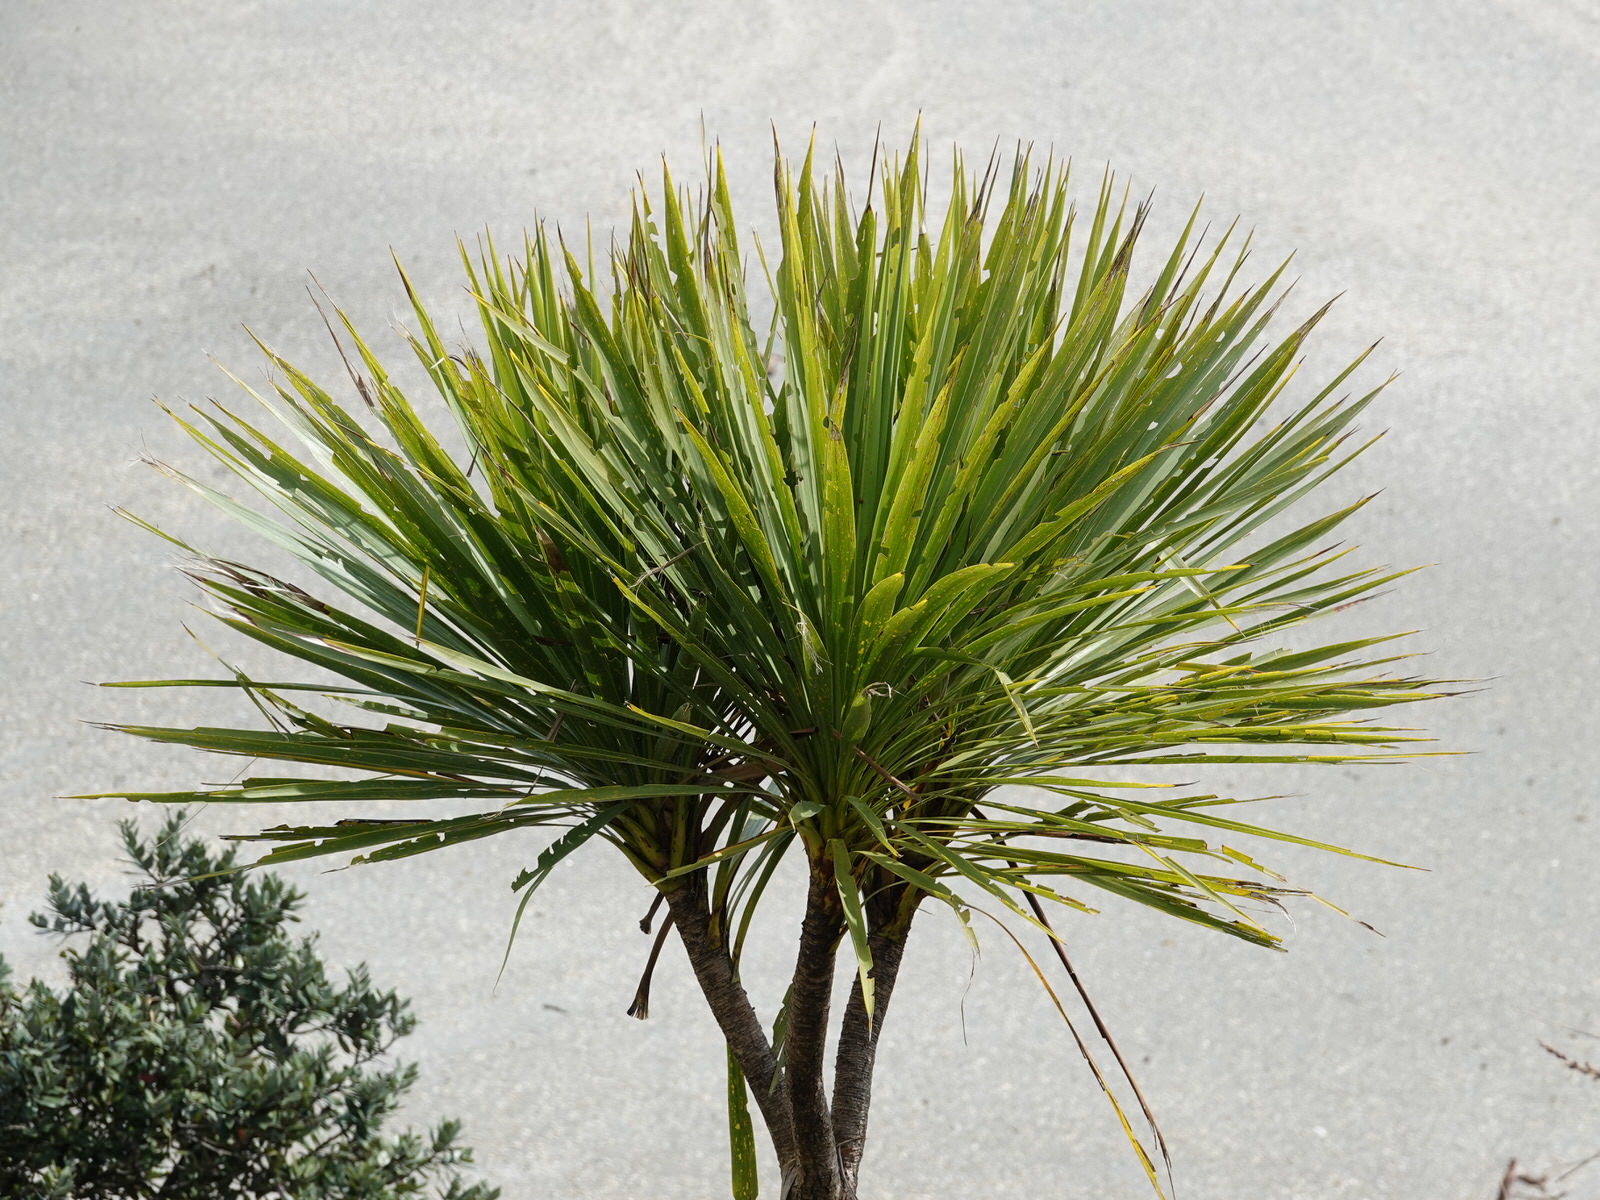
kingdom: Plantae
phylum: Tracheophyta
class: Liliopsida
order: Asparagales
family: Asparagaceae
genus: Cordyline
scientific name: Cordyline australis
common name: Cabbage-palm
